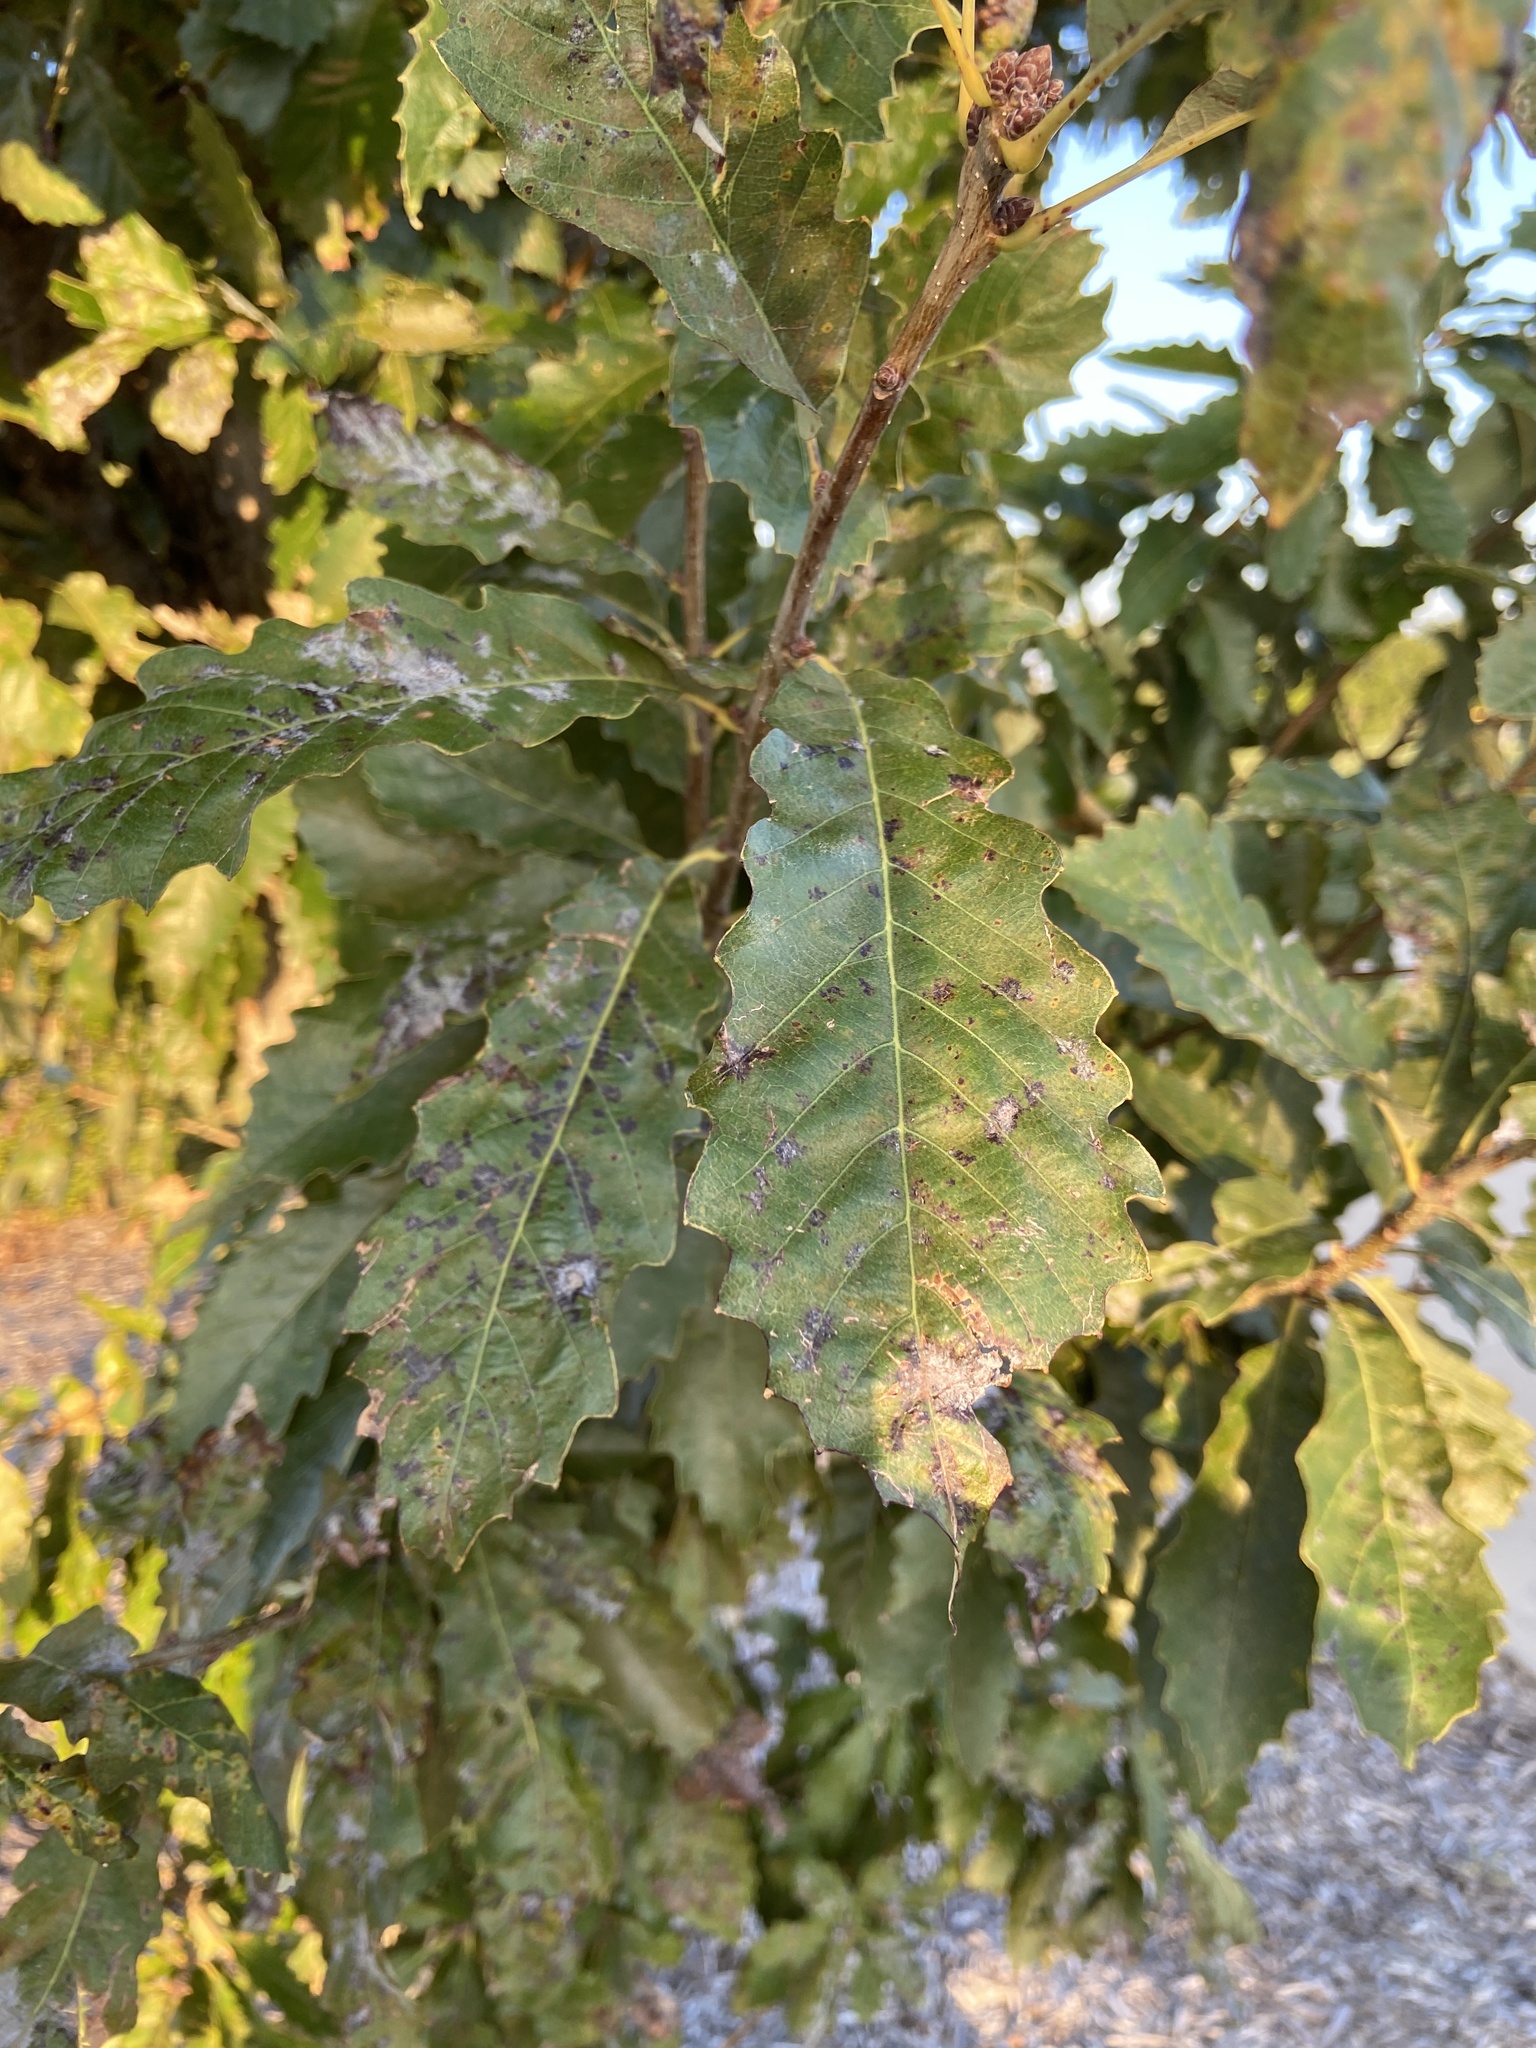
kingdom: Plantae
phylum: Tracheophyta
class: Magnoliopsida
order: Fagales
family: Fagaceae
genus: Quercus
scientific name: Quercus muehlenbergii
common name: Chinkapin oak
